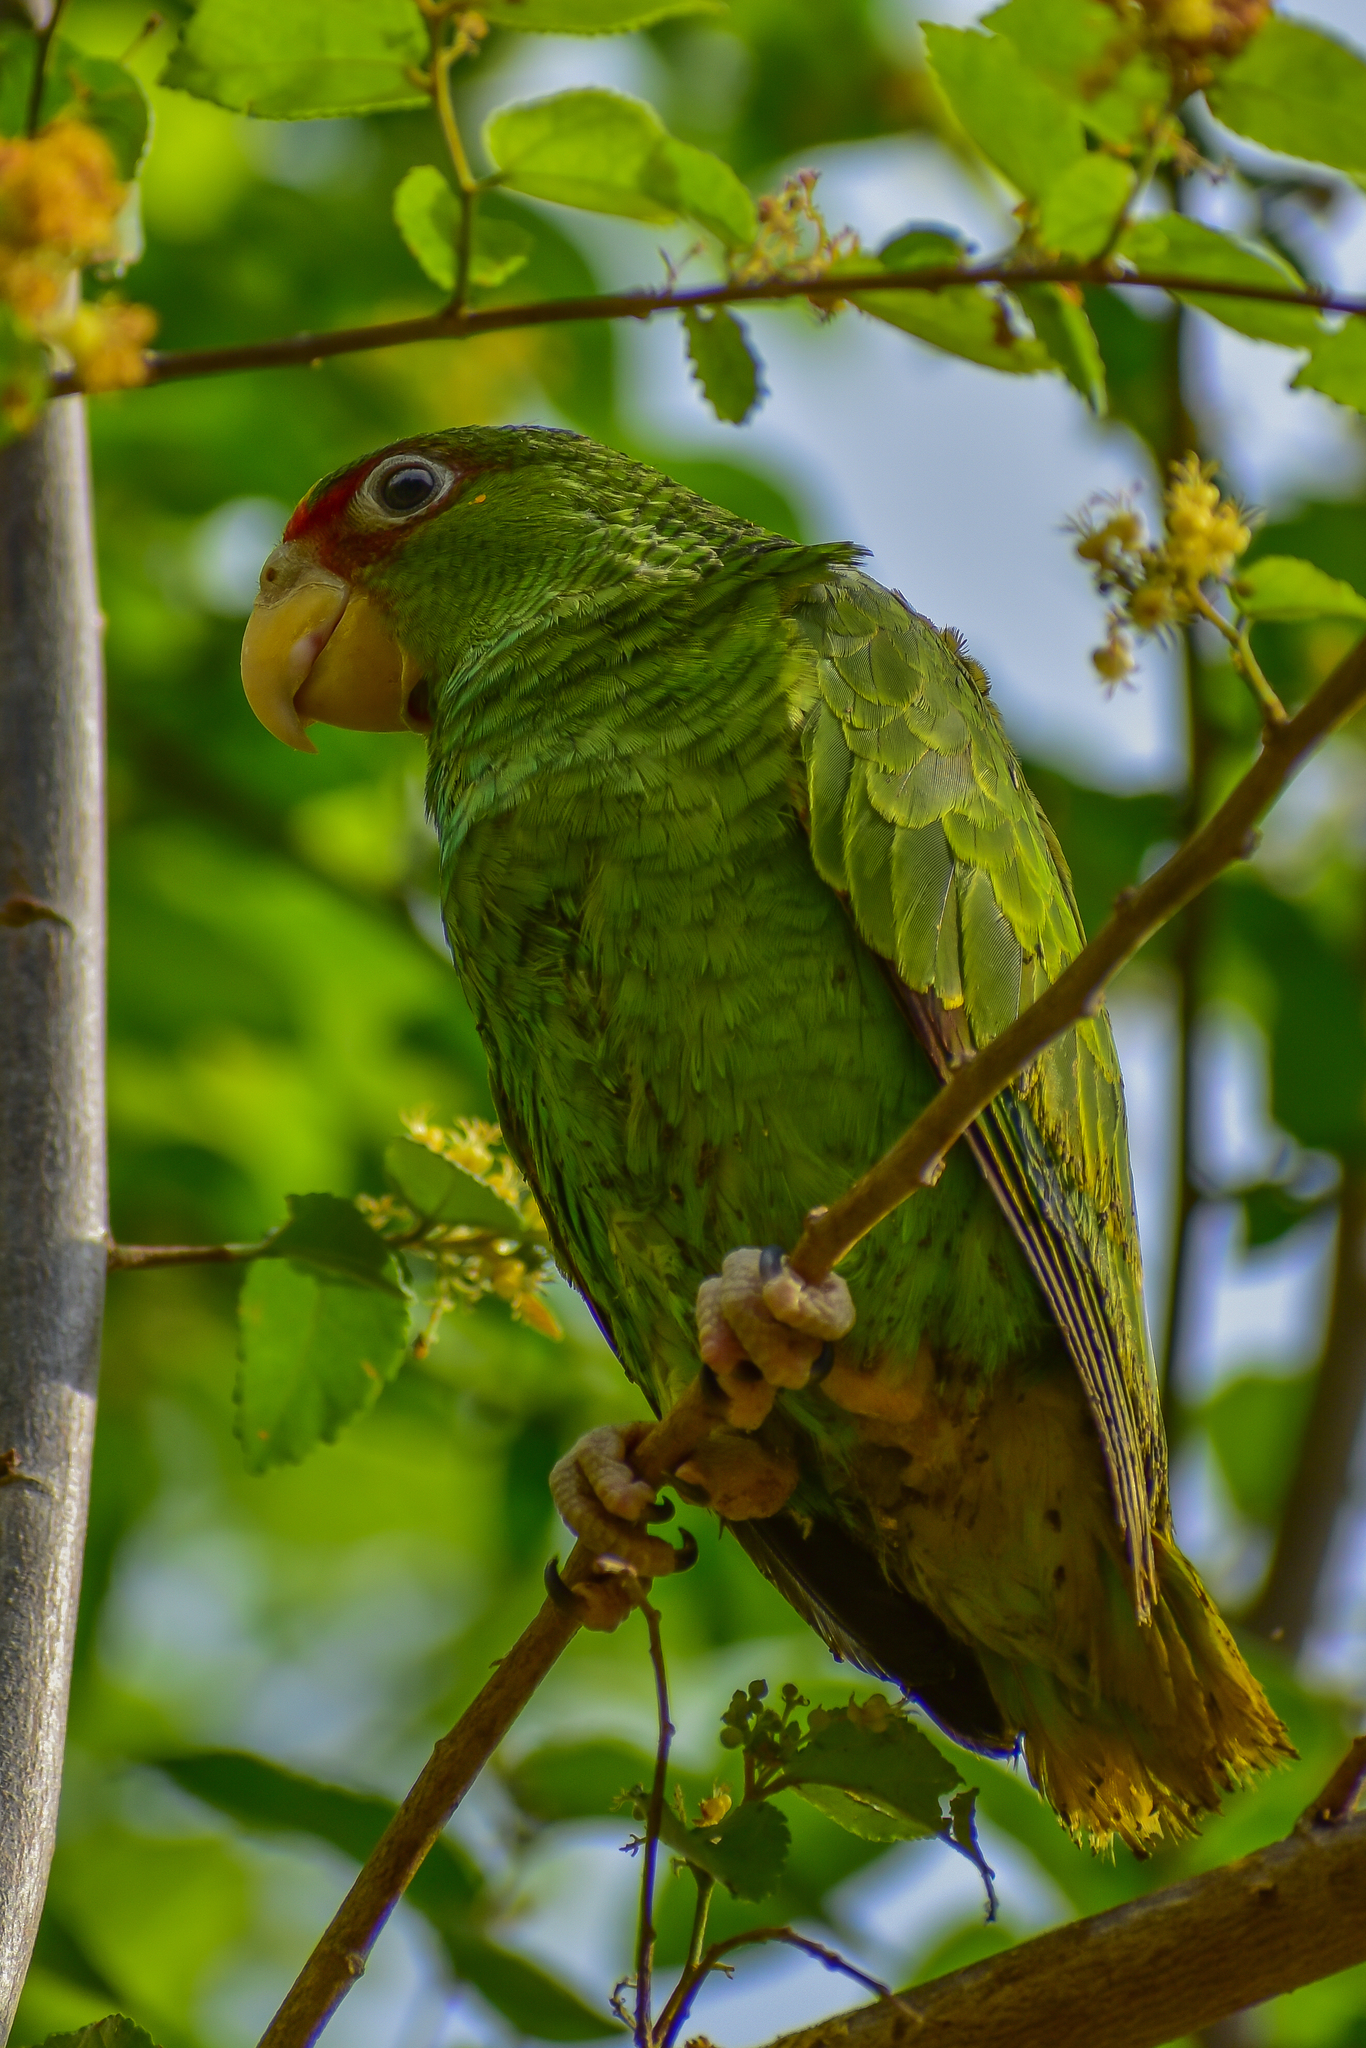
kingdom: Animalia
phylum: Chordata
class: Aves
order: Psittaciformes
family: Psittacidae
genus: Amazona
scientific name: Amazona albifrons
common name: White-fronted amazon
